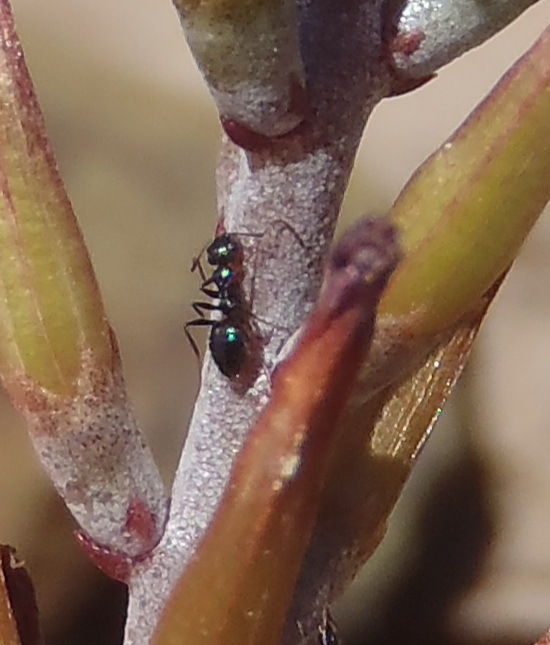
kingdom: Animalia
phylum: Arthropoda
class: Insecta
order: Hymenoptera
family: Formicidae
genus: Lepisiota
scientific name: Lepisiota depressa
